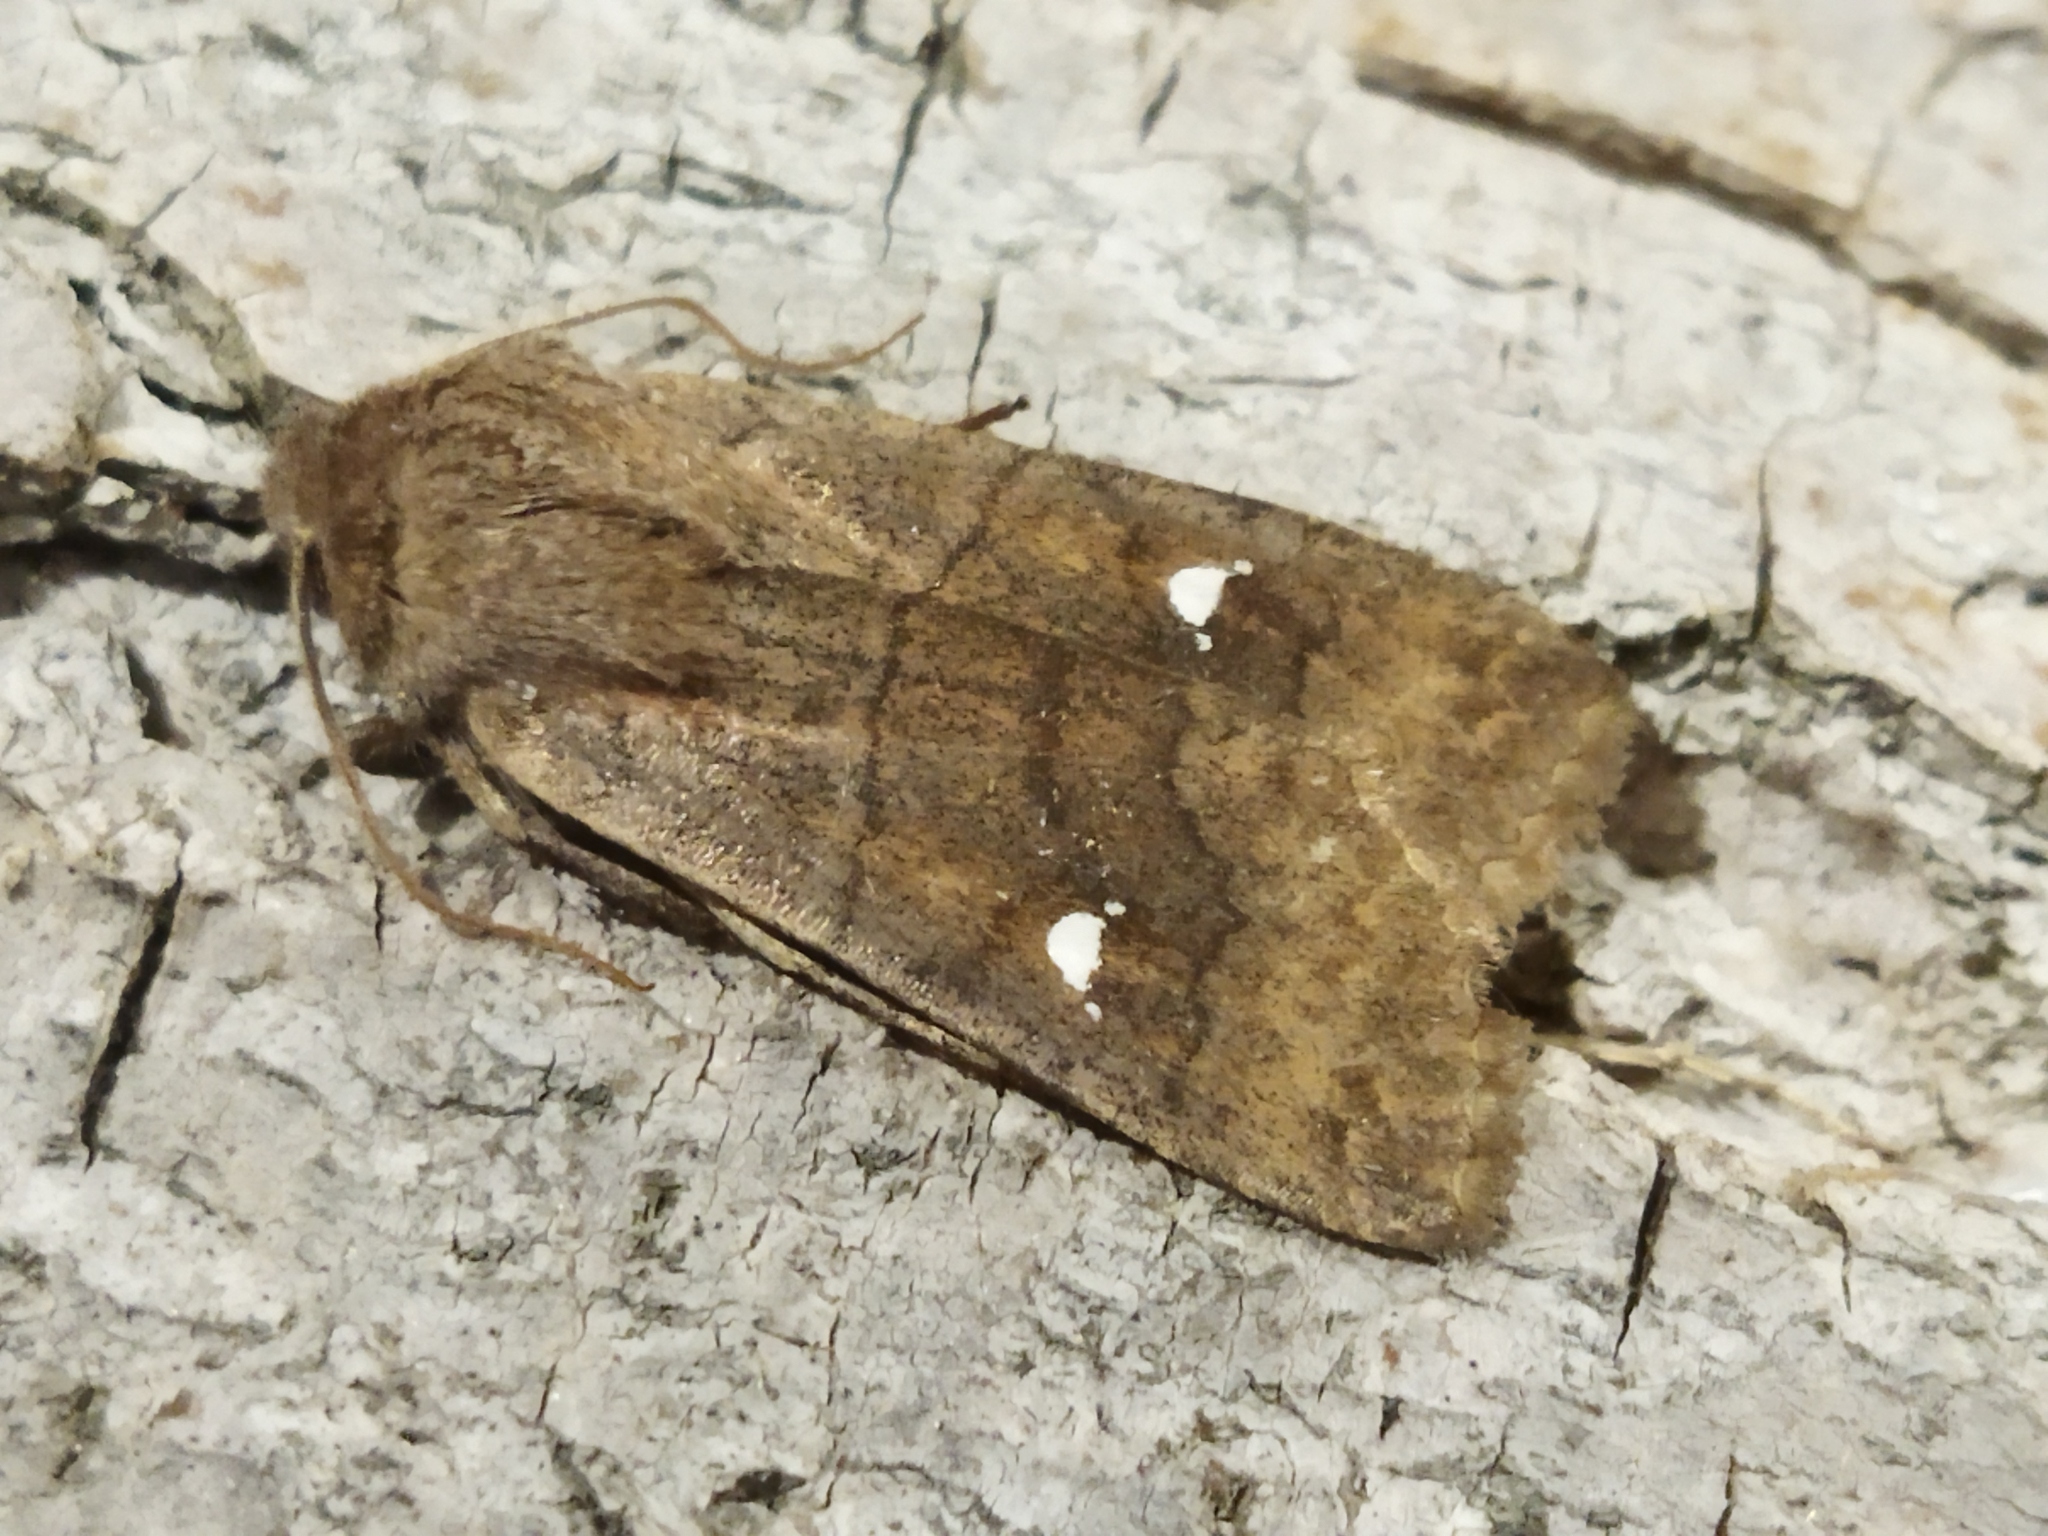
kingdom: Animalia
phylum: Arthropoda
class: Insecta
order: Lepidoptera
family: Noctuidae
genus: Eupsilia
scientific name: Eupsilia transversa
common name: Satellite
